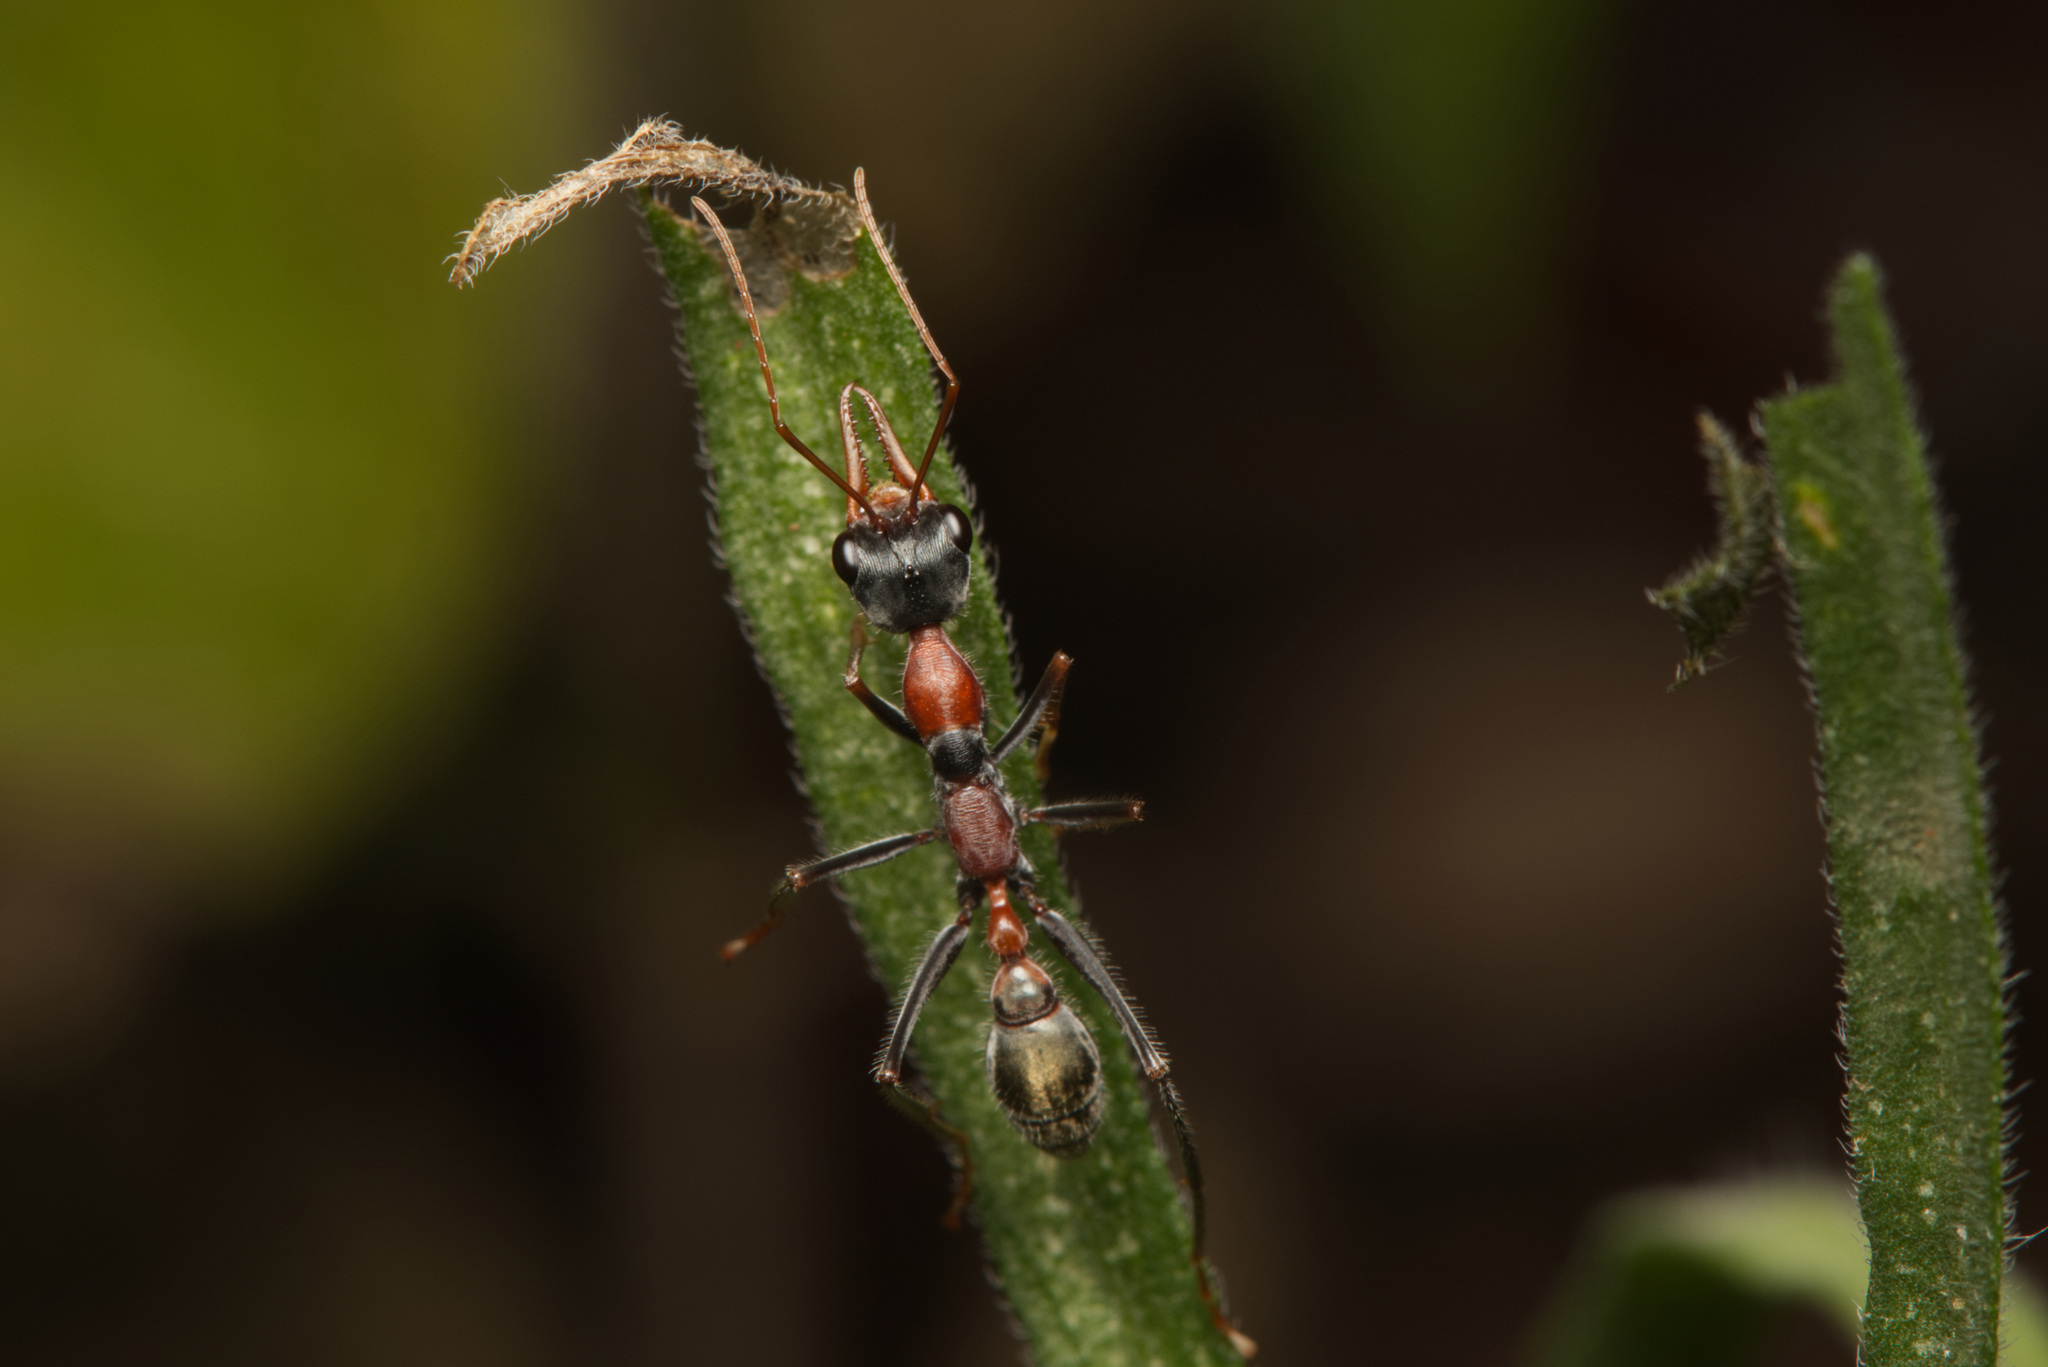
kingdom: Animalia
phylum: Arthropoda
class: Insecta
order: Hymenoptera
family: Formicidae
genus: Myrmecia
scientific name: Myrmecia nigrocincta
